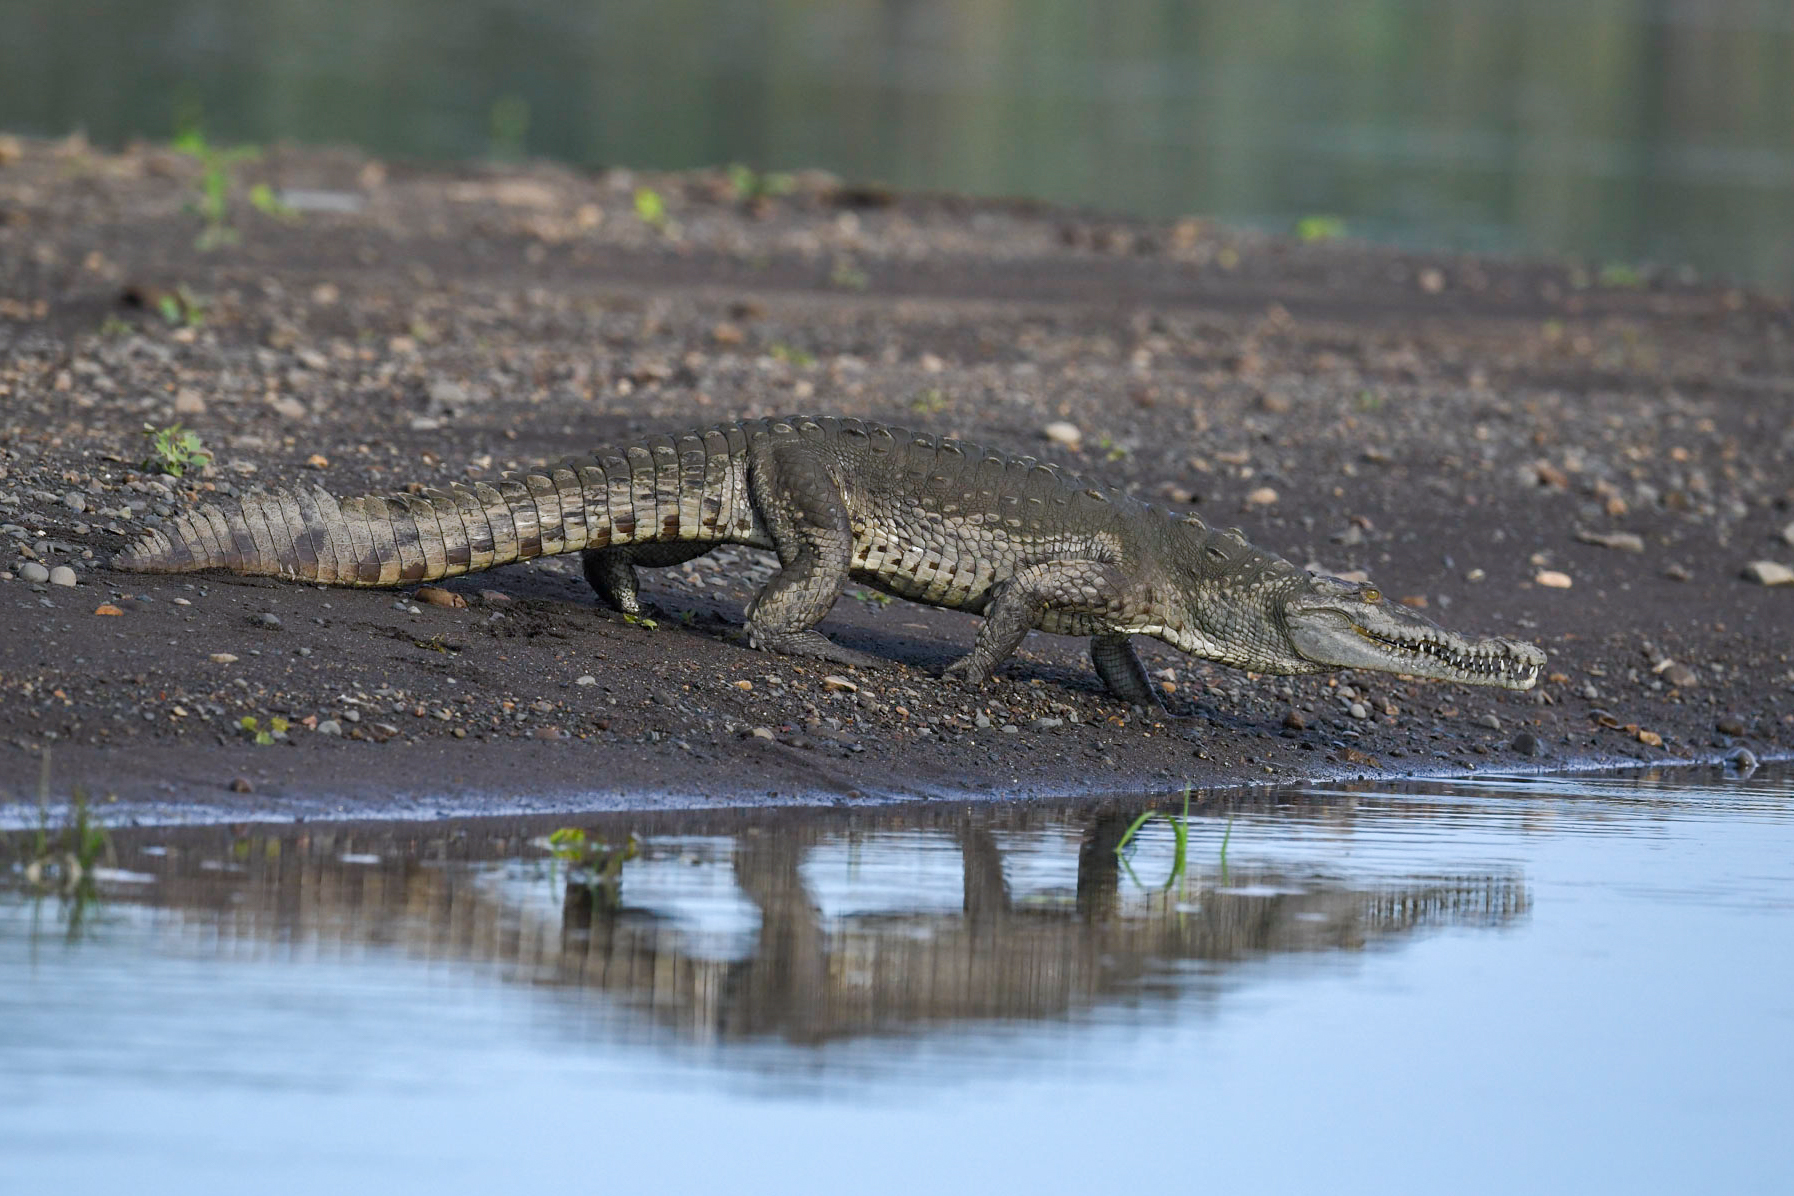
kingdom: Animalia
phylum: Chordata
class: Crocodylia
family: Crocodylidae
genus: Crocodylus
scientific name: Crocodylus acutus
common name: American crocodile
